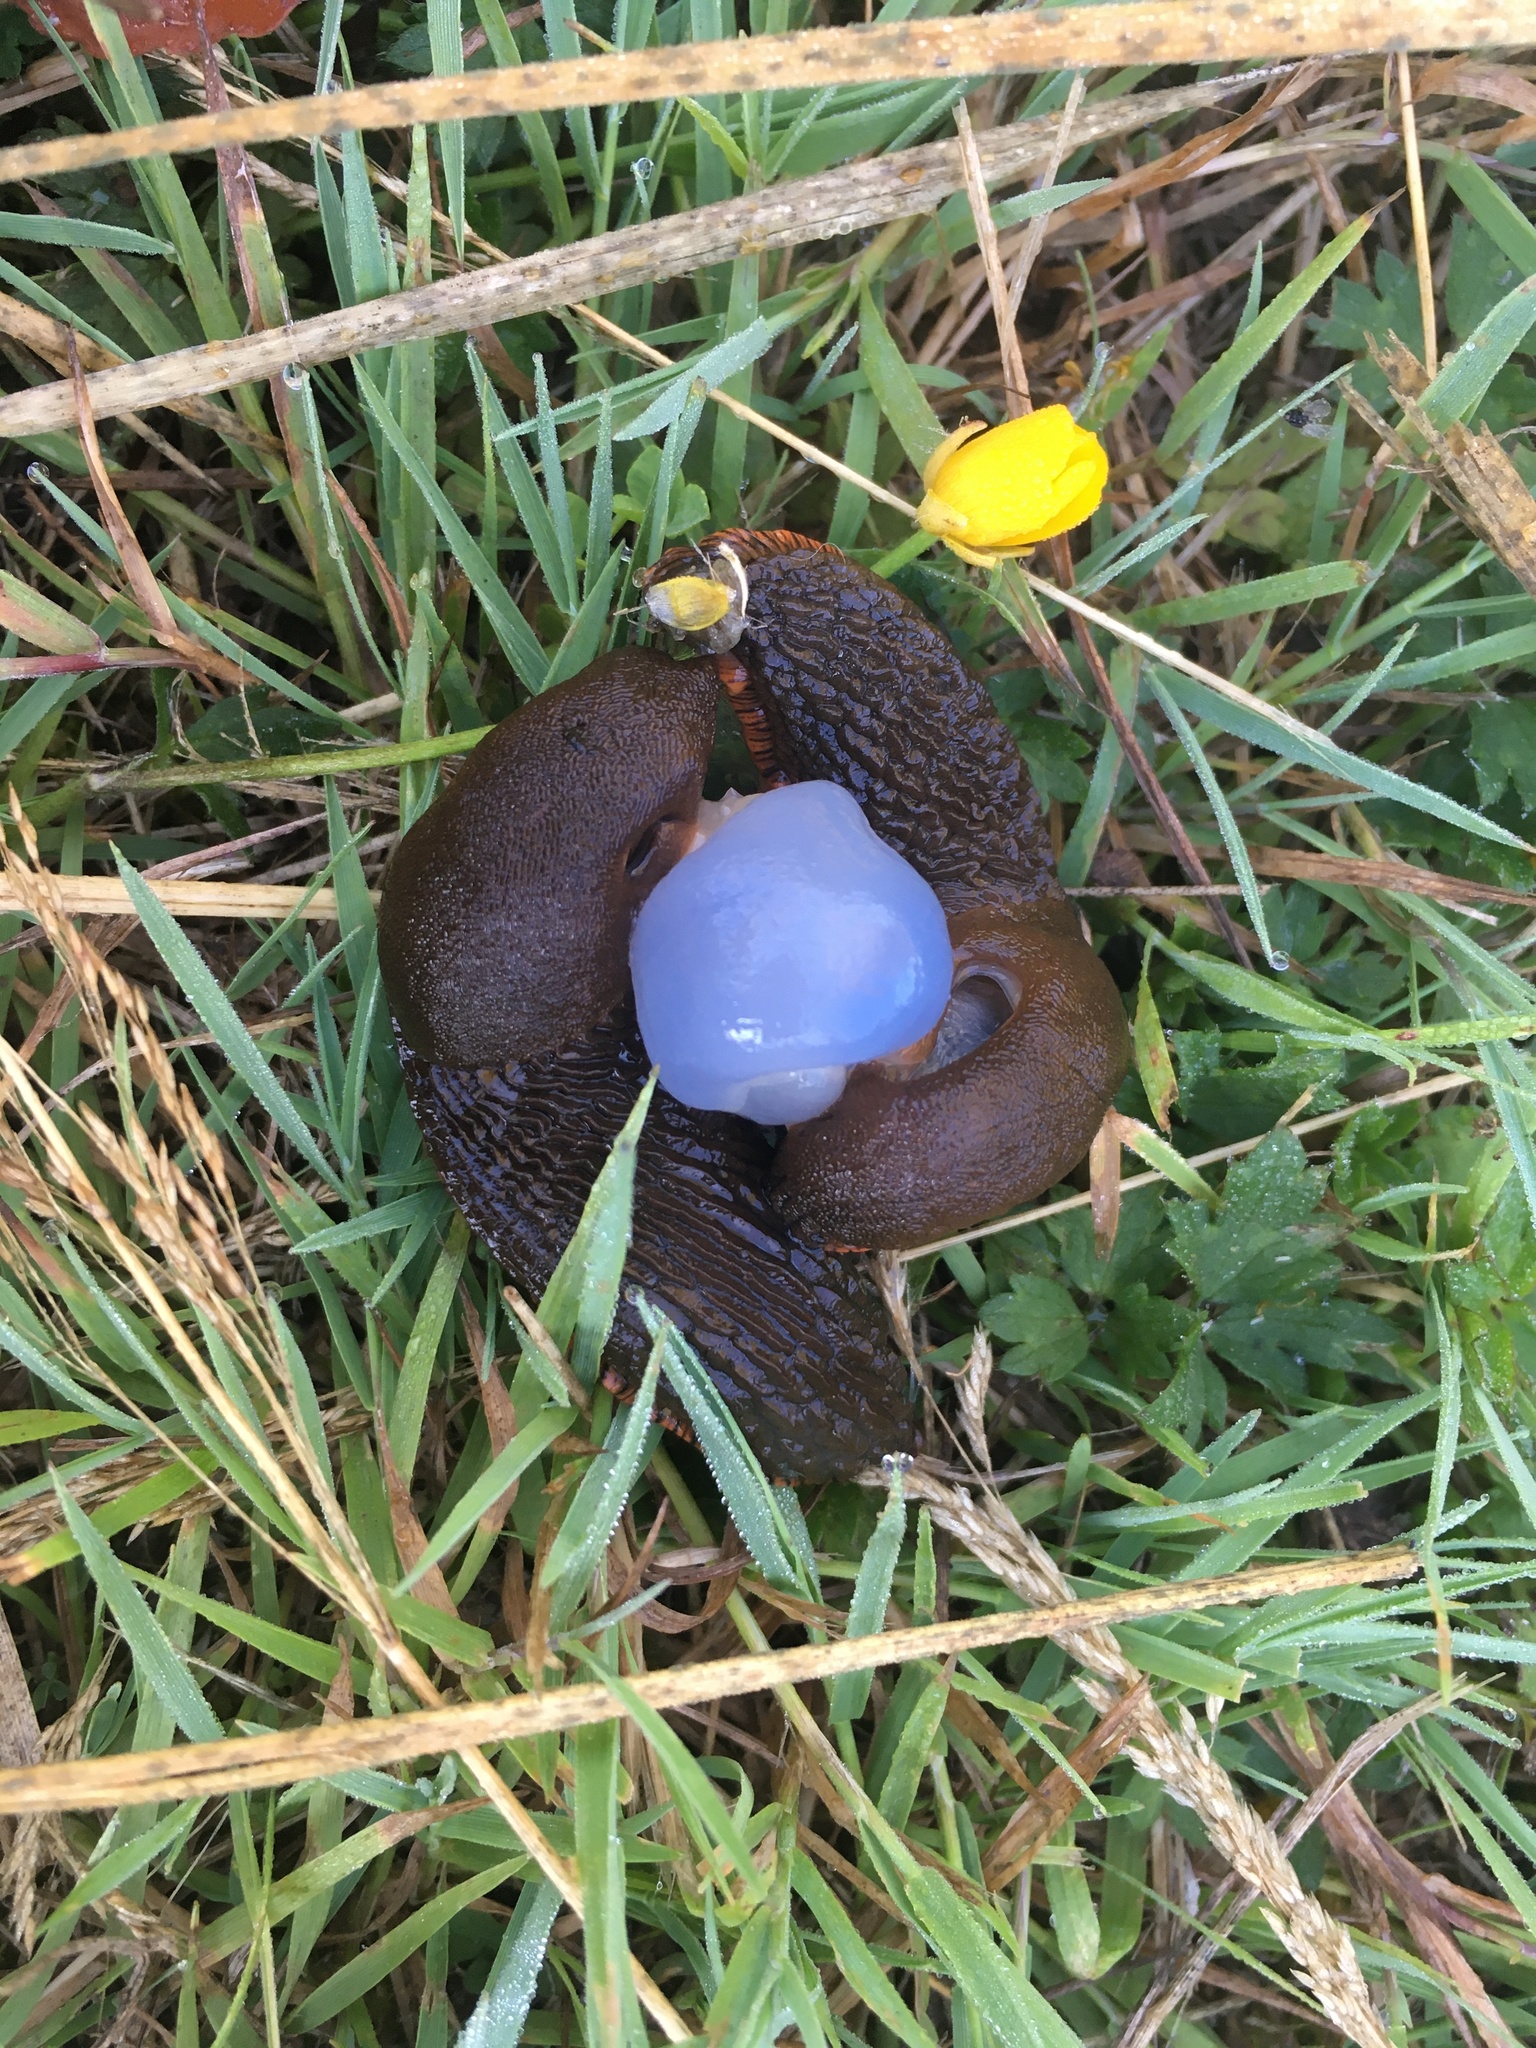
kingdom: Animalia
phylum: Mollusca
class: Gastropoda
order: Stylommatophora
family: Arionidae
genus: Arion
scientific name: Arion rufus
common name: Chocolate arion
